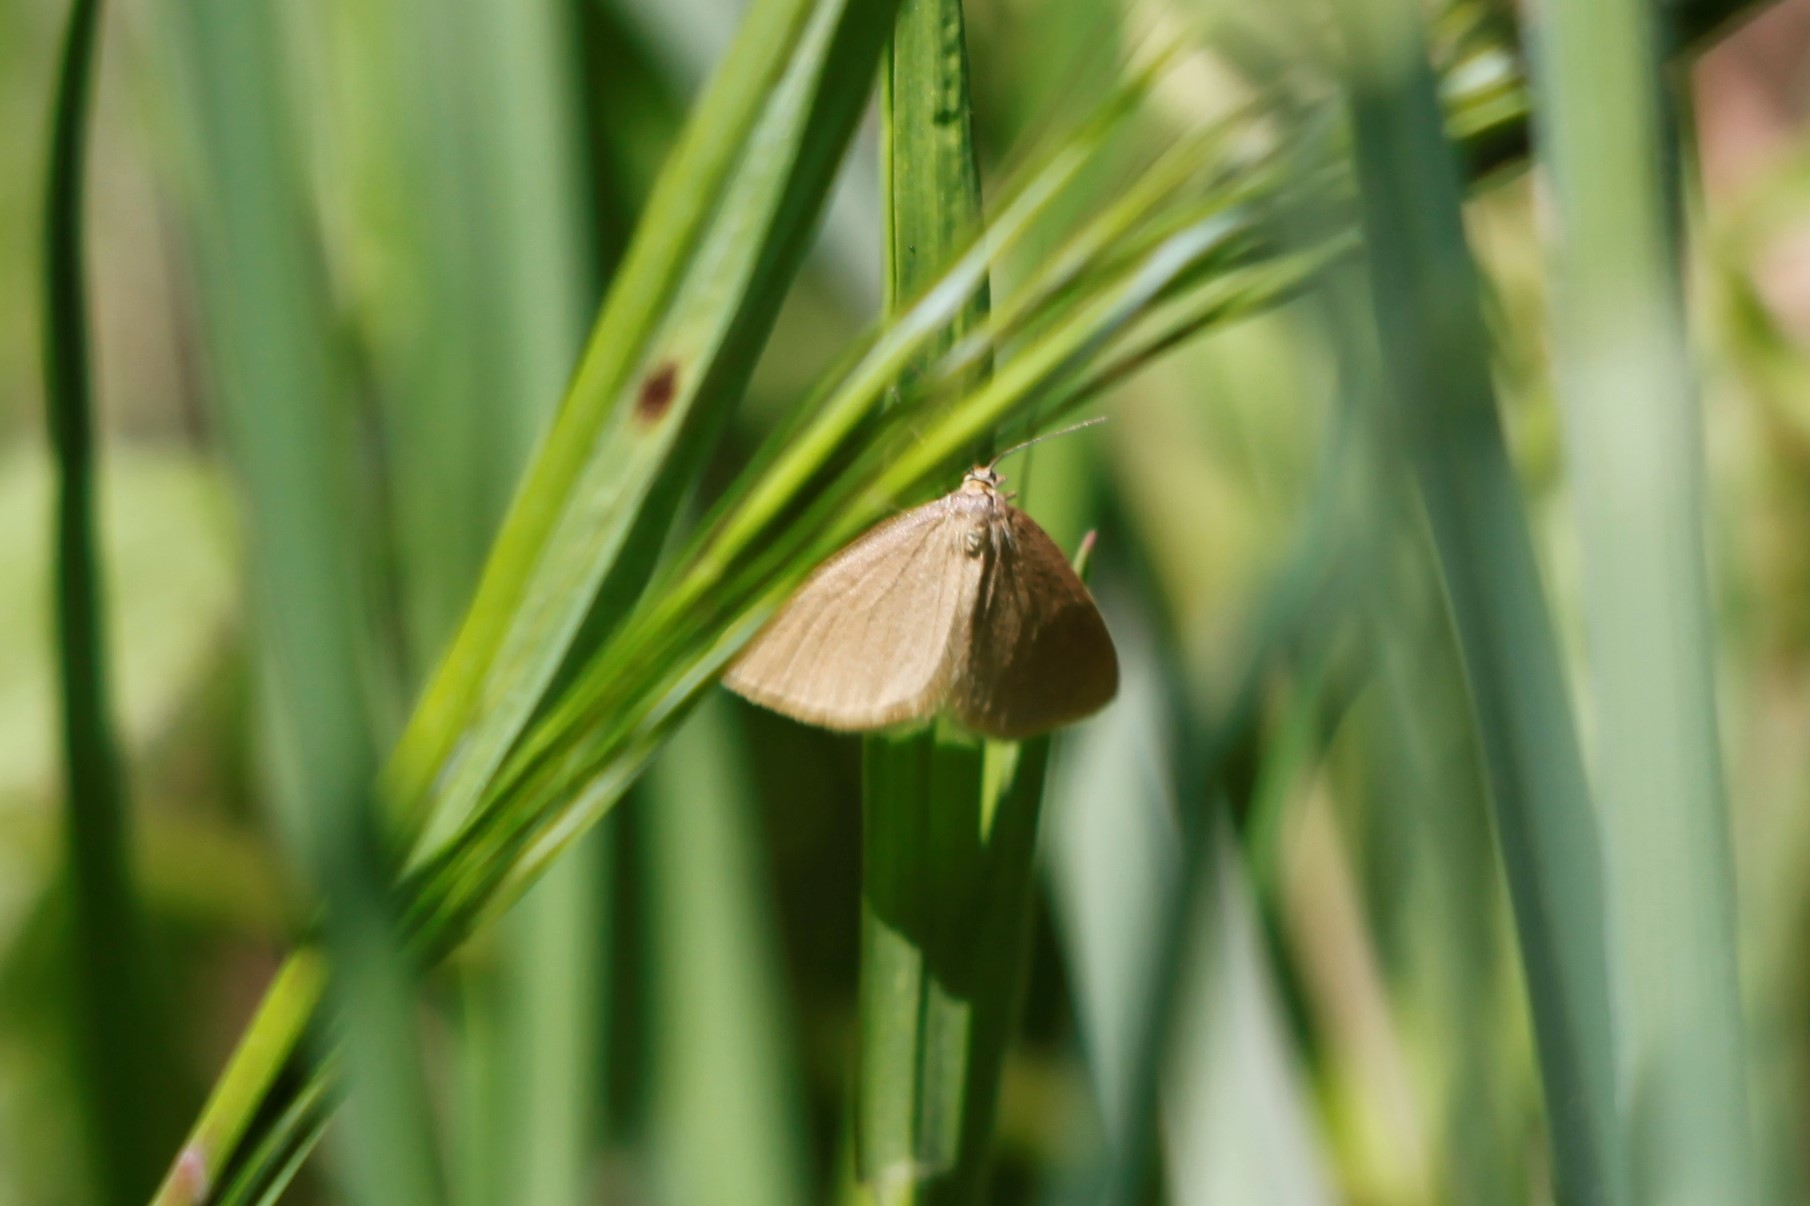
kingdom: Animalia
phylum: Arthropoda
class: Insecta
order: Lepidoptera
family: Geometridae
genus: Minoa
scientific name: Minoa murinata
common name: Drab looper
